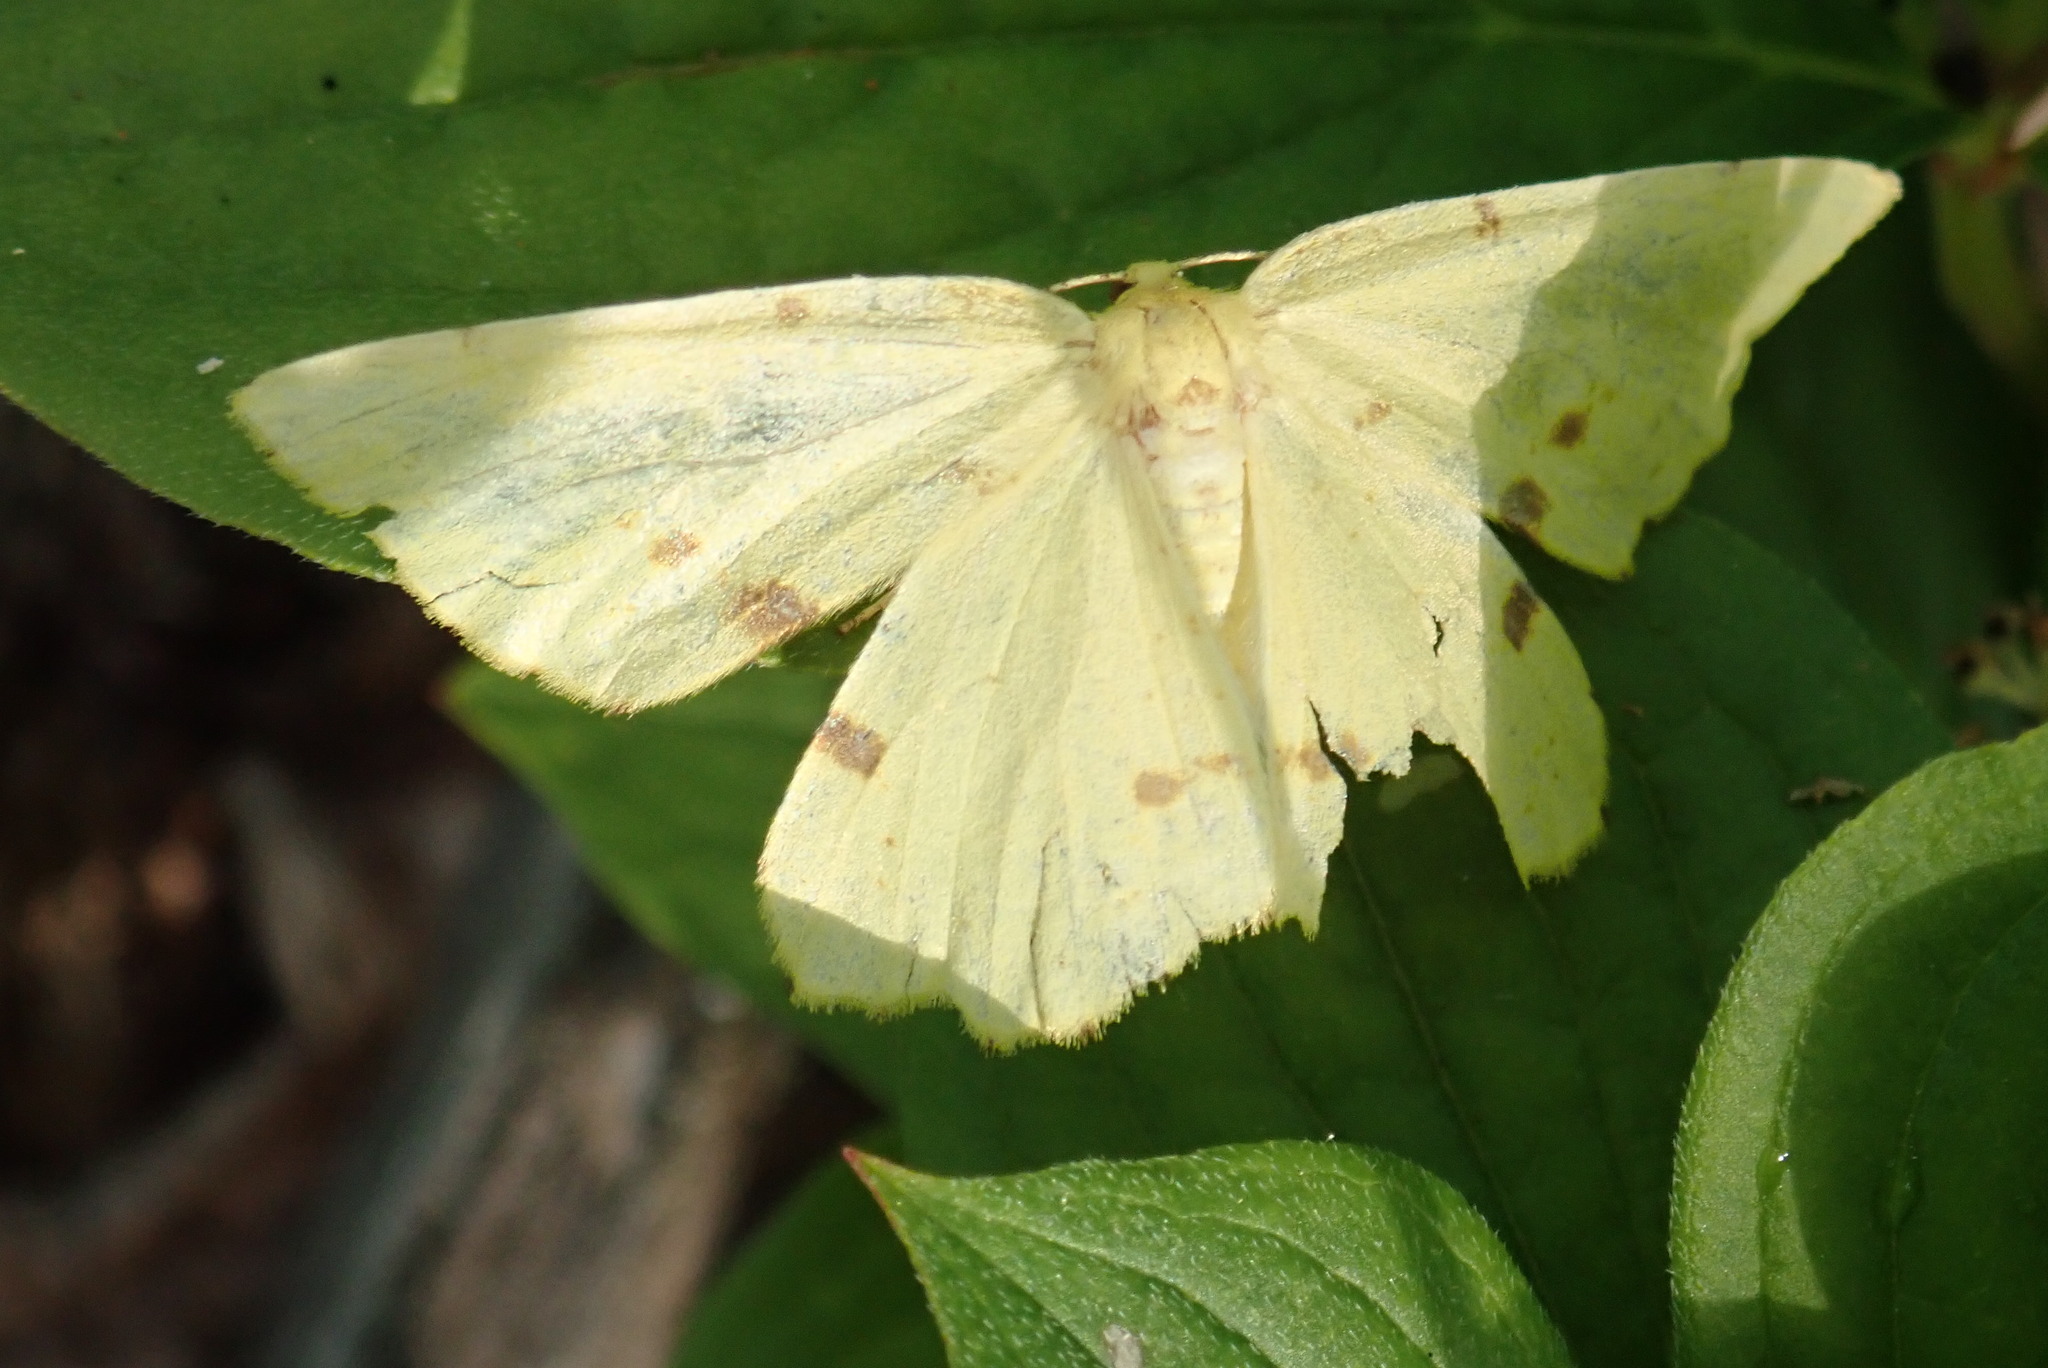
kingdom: Animalia
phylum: Arthropoda
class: Insecta
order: Lepidoptera
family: Geometridae
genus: Xanthotype
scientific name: Xanthotype
